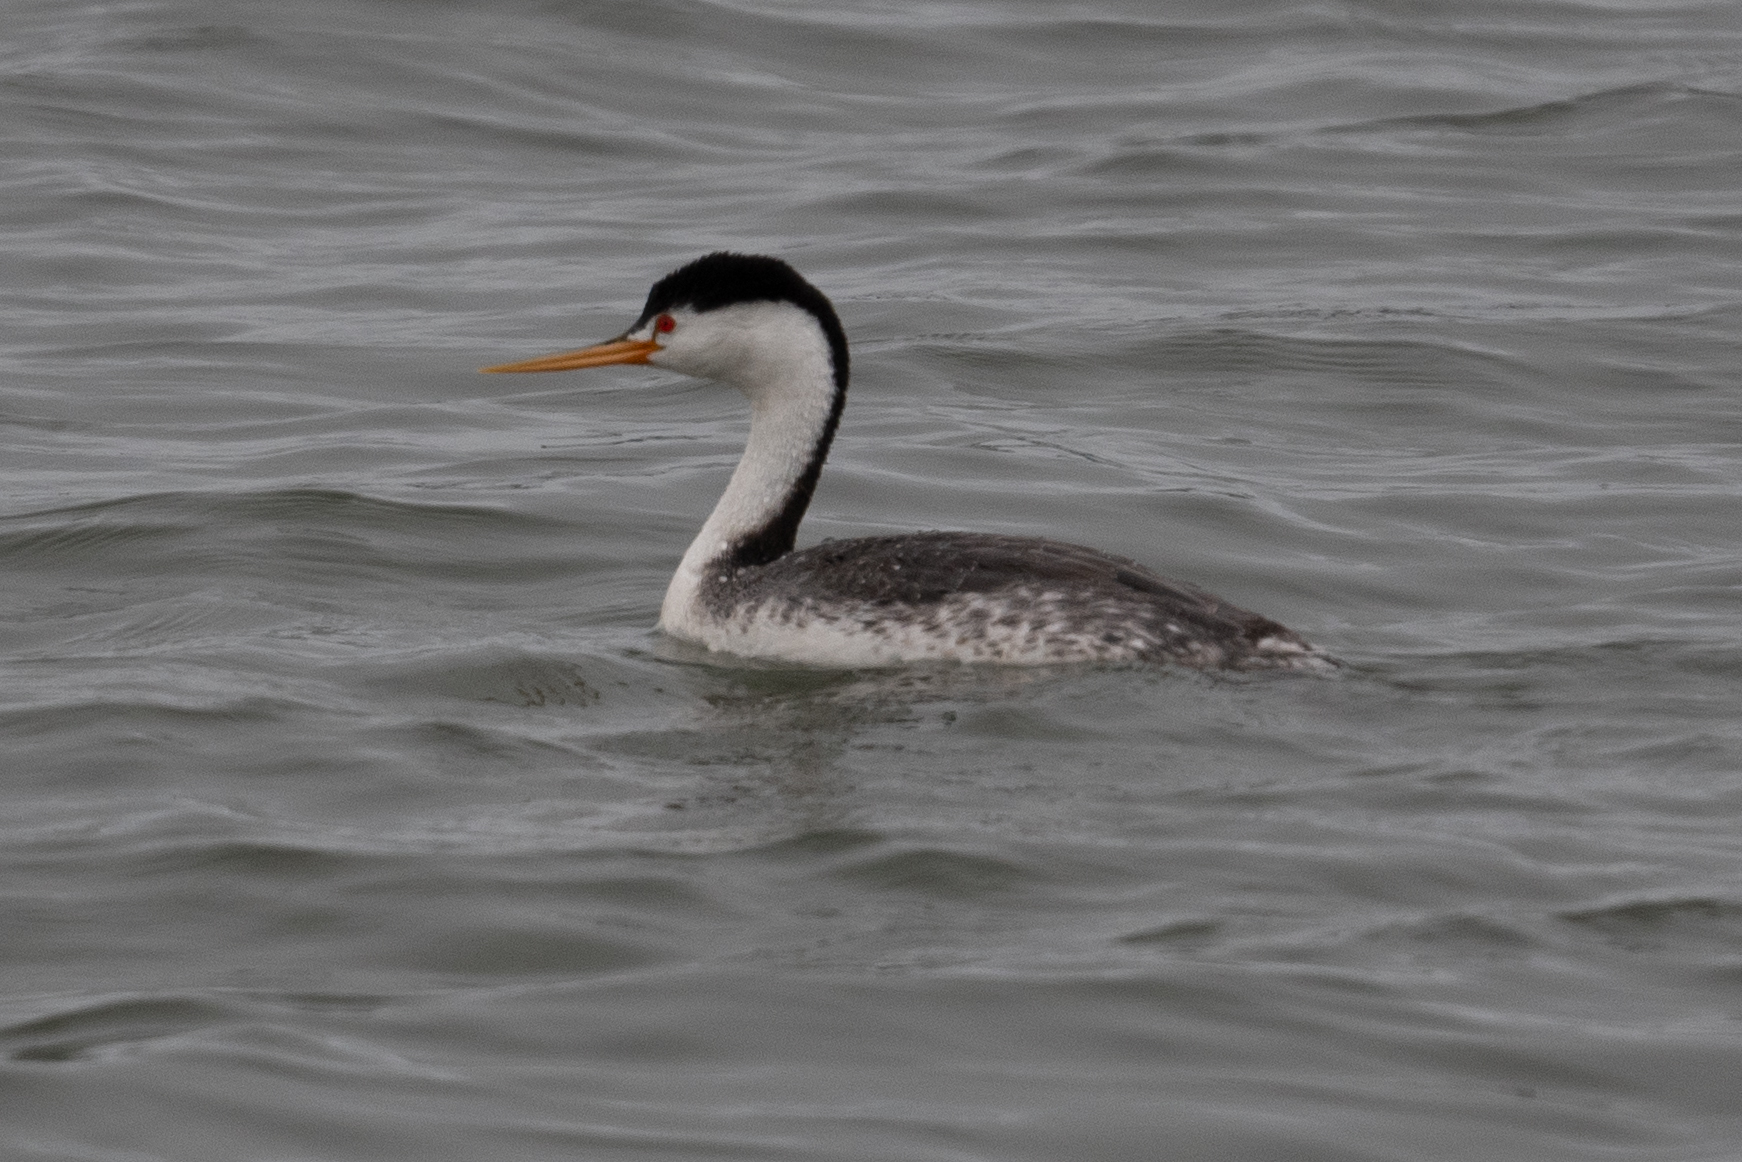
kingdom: Animalia
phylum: Chordata
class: Aves
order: Podicipediformes
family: Podicipedidae
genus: Aechmophorus
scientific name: Aechmophorus clarkii
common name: Clark's grebe
